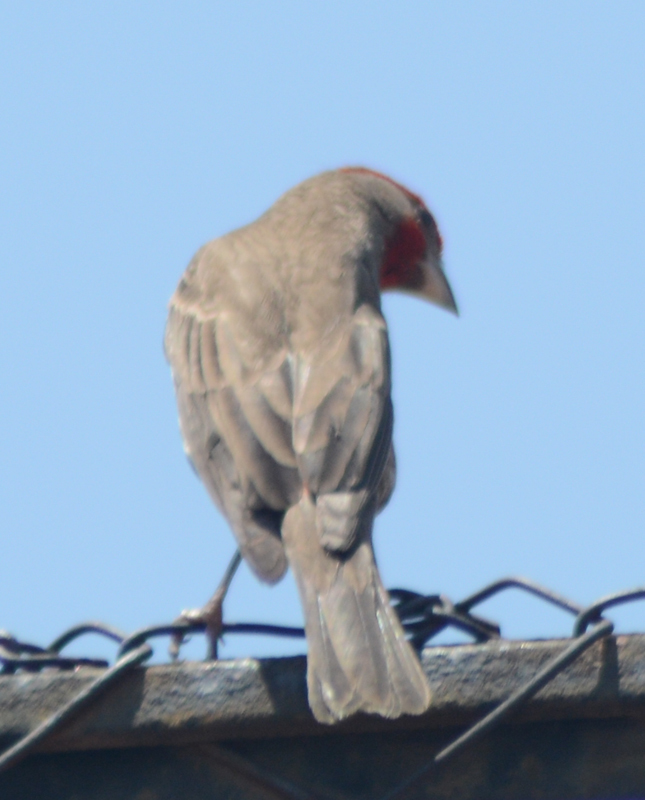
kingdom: Animalia
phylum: Chordata
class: Aves
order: Passeriformes
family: Fringillidae
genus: Haemorhous
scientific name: Haemorhous mexicanus
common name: House finch
